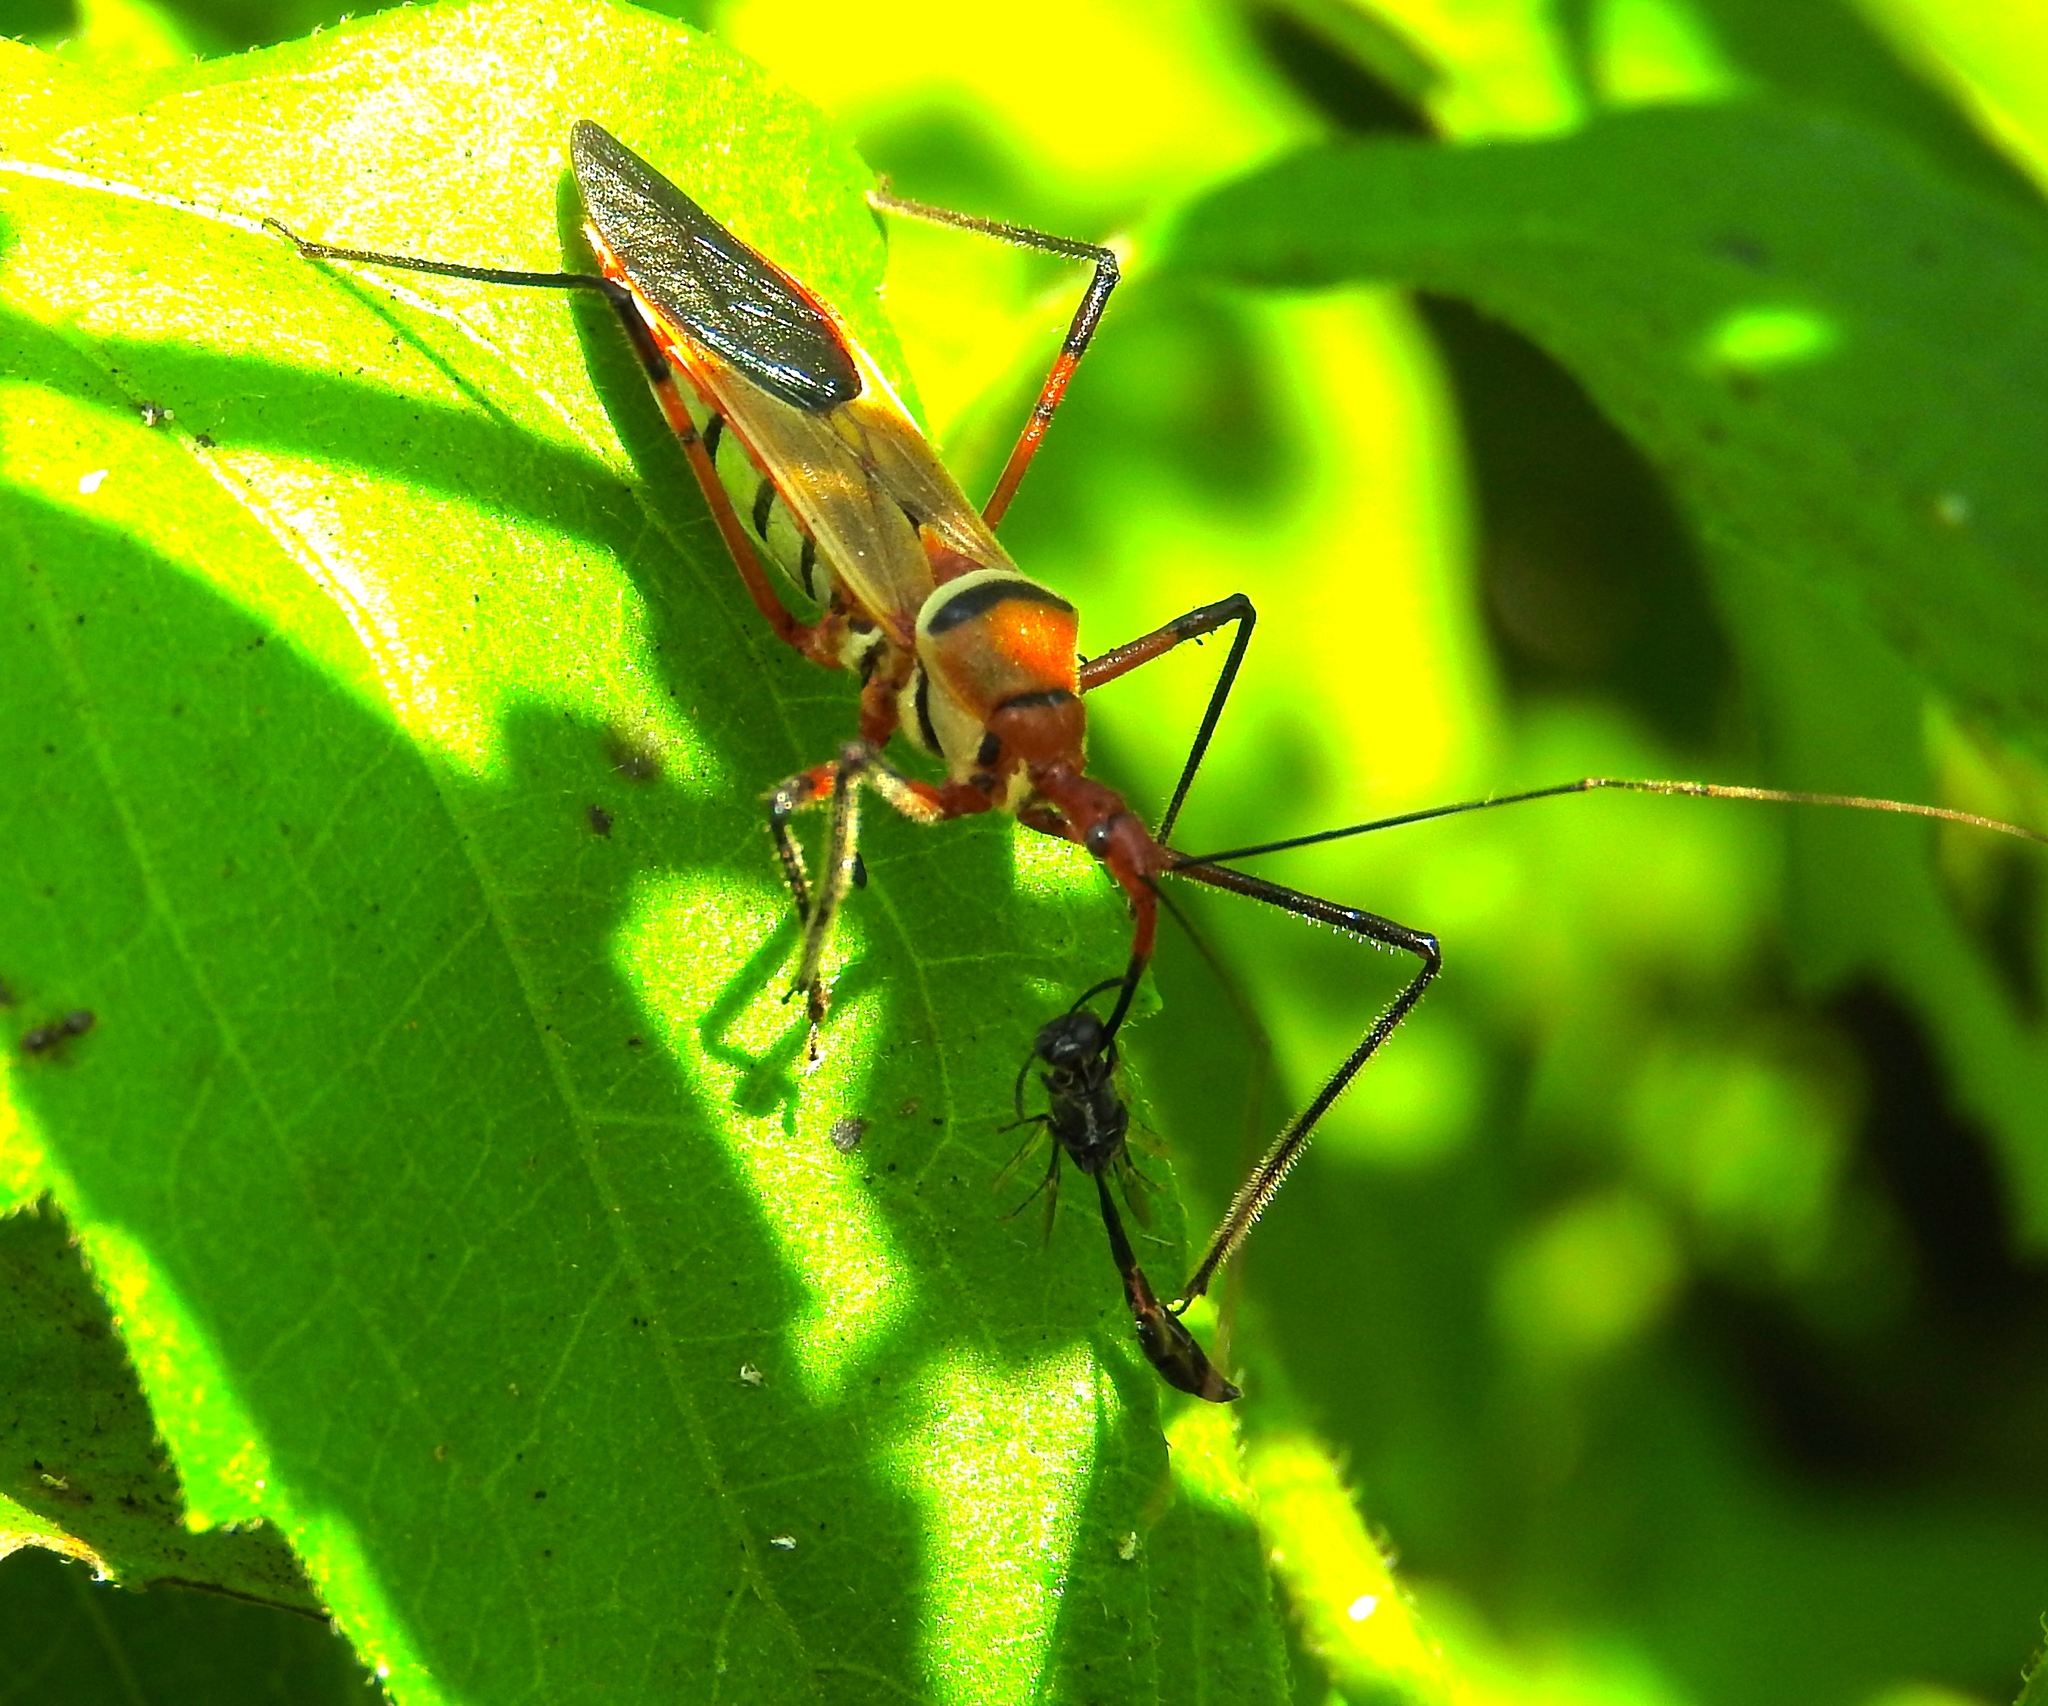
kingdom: Animalia
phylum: Arthropoda
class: Insecta
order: Hemiptera
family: Reduviidae
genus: Zelus
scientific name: Zelus grassans
